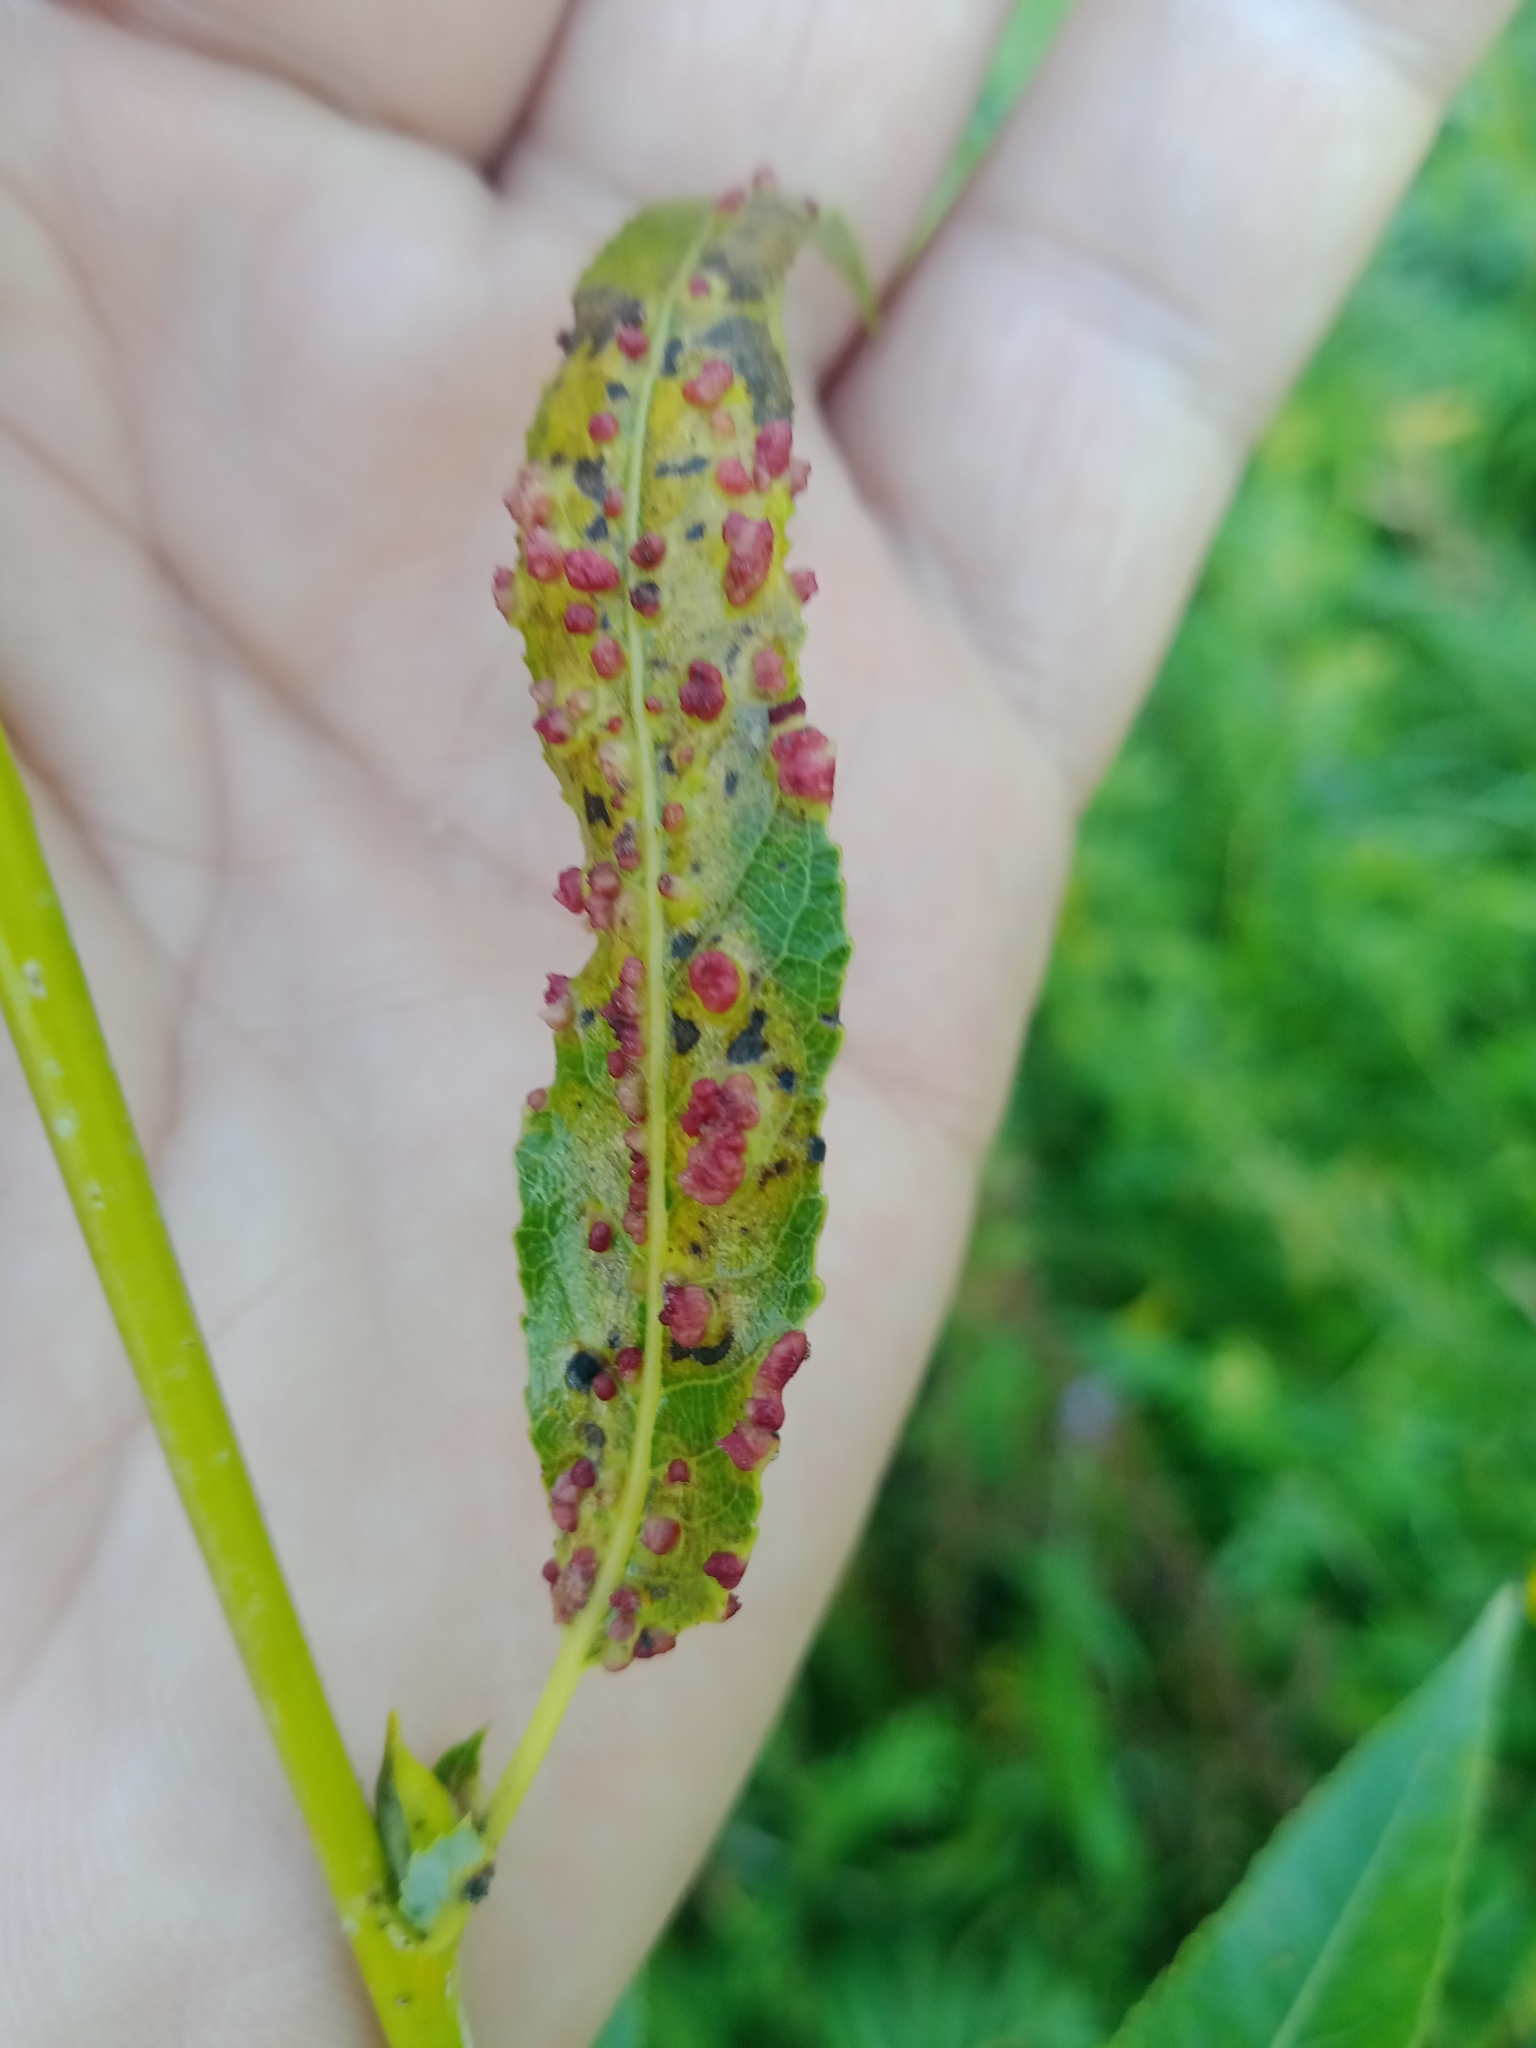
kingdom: Animalia
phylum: Arthropoda
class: Arachnida
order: Trombidiformes
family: Eriophyidae
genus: Aculus
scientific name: Aculus tetanothrix
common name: Willow bead gall mite
